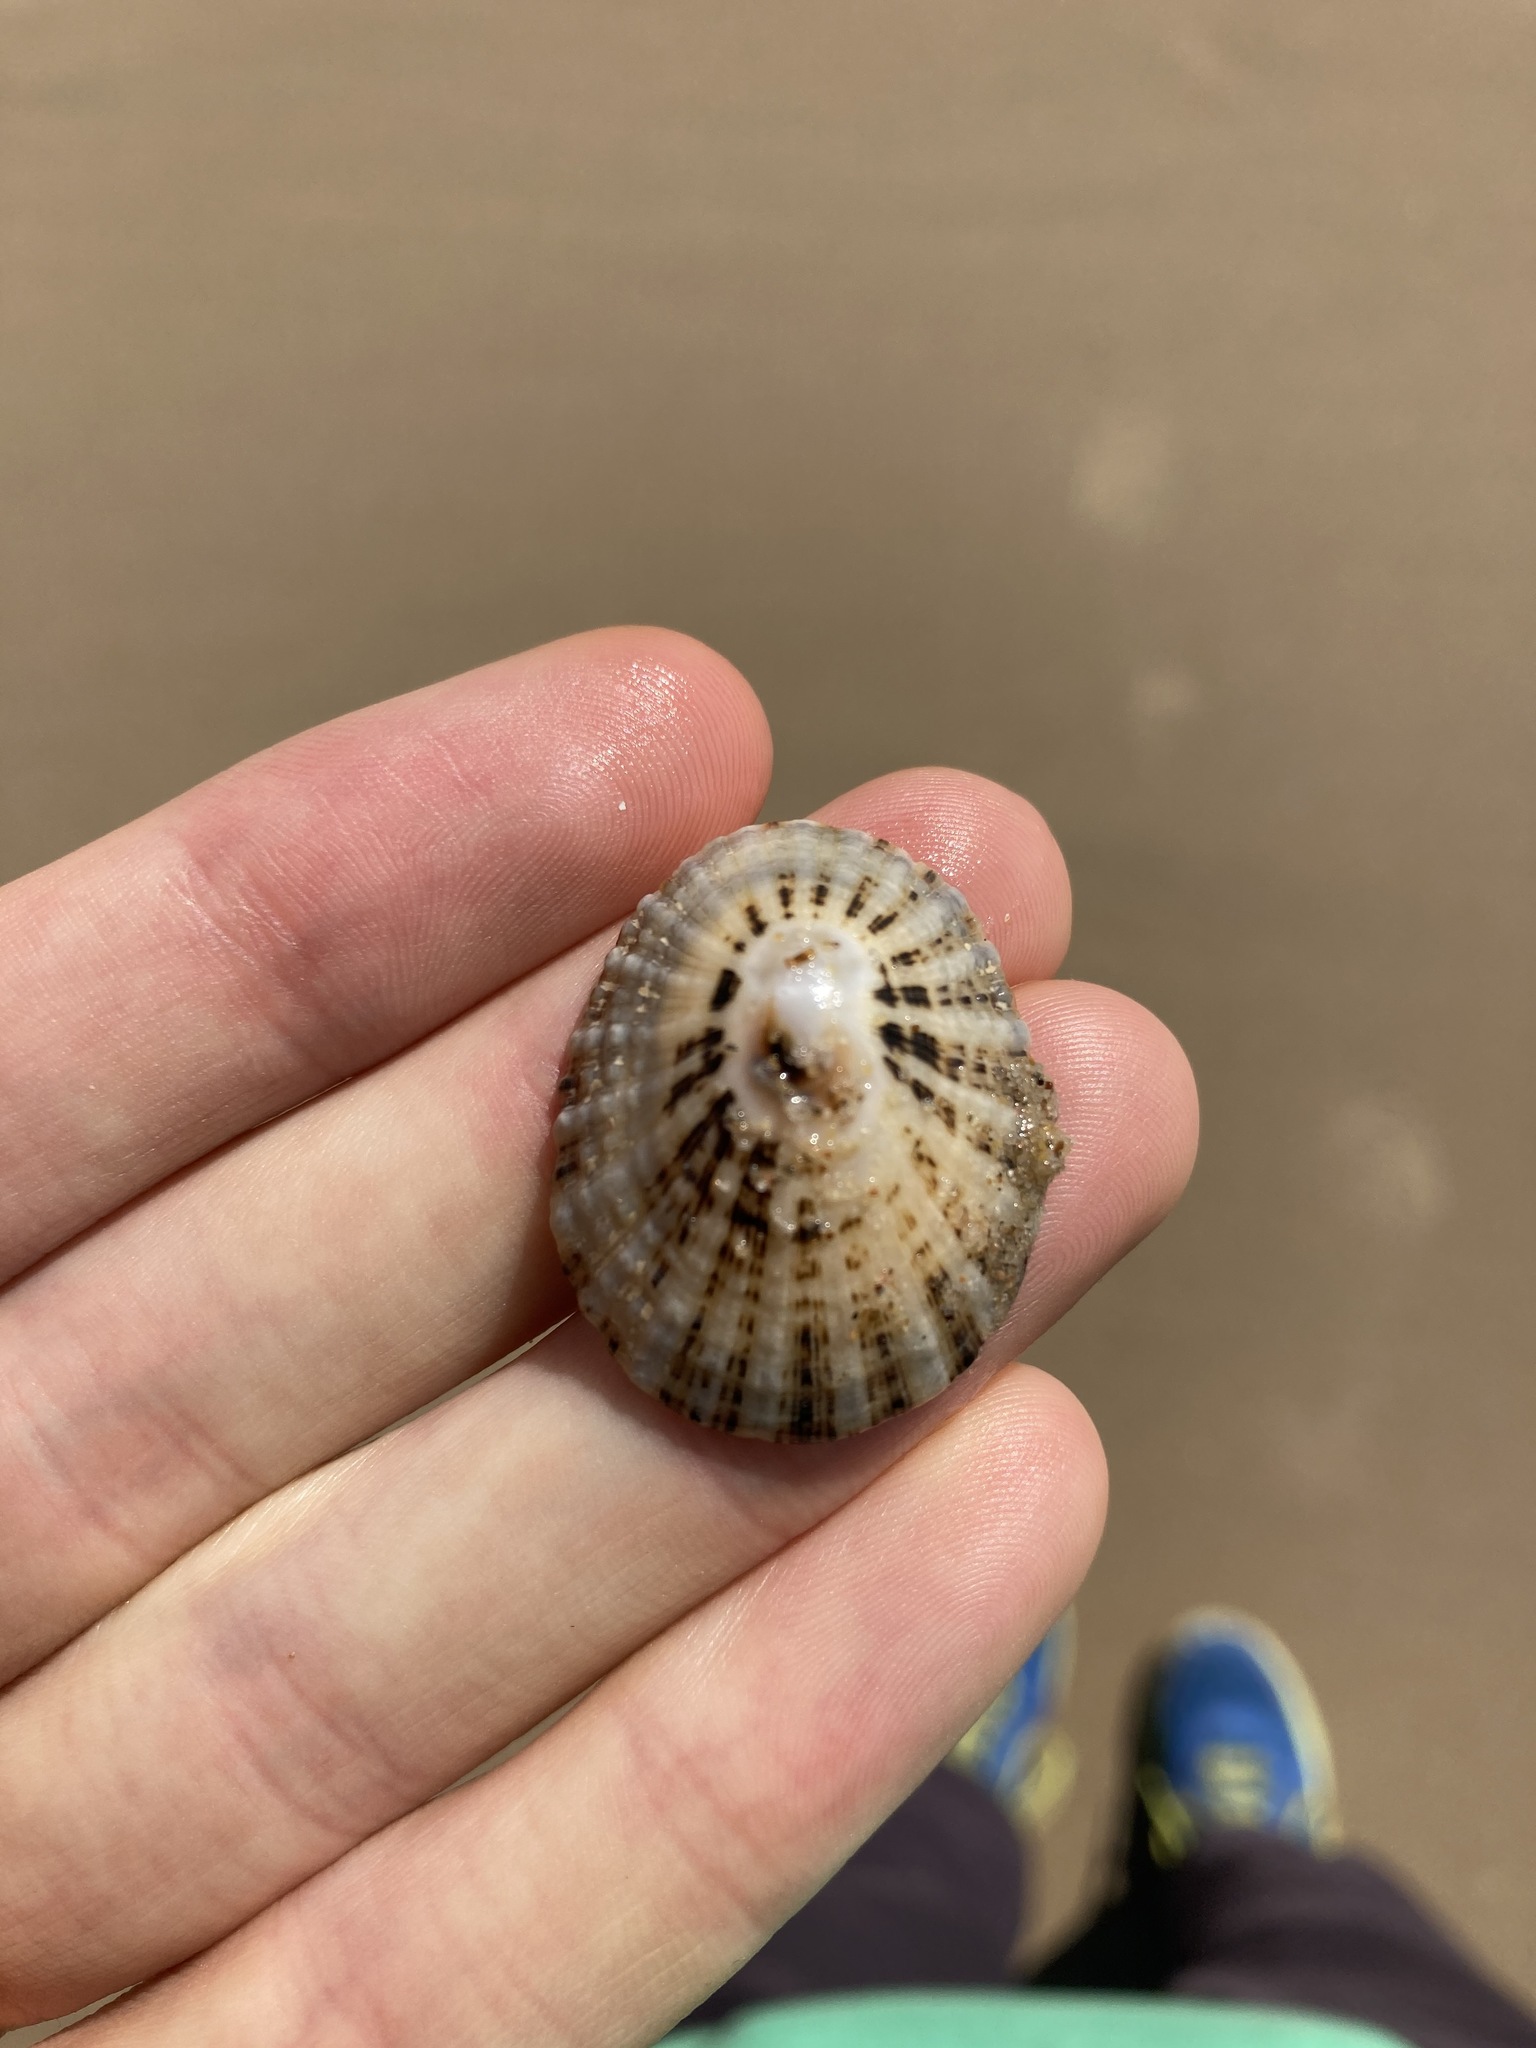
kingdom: Animalia
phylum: Mollusca
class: Gastropoda
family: Patellidae
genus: Scutellastra
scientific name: Scutellastra peronii
